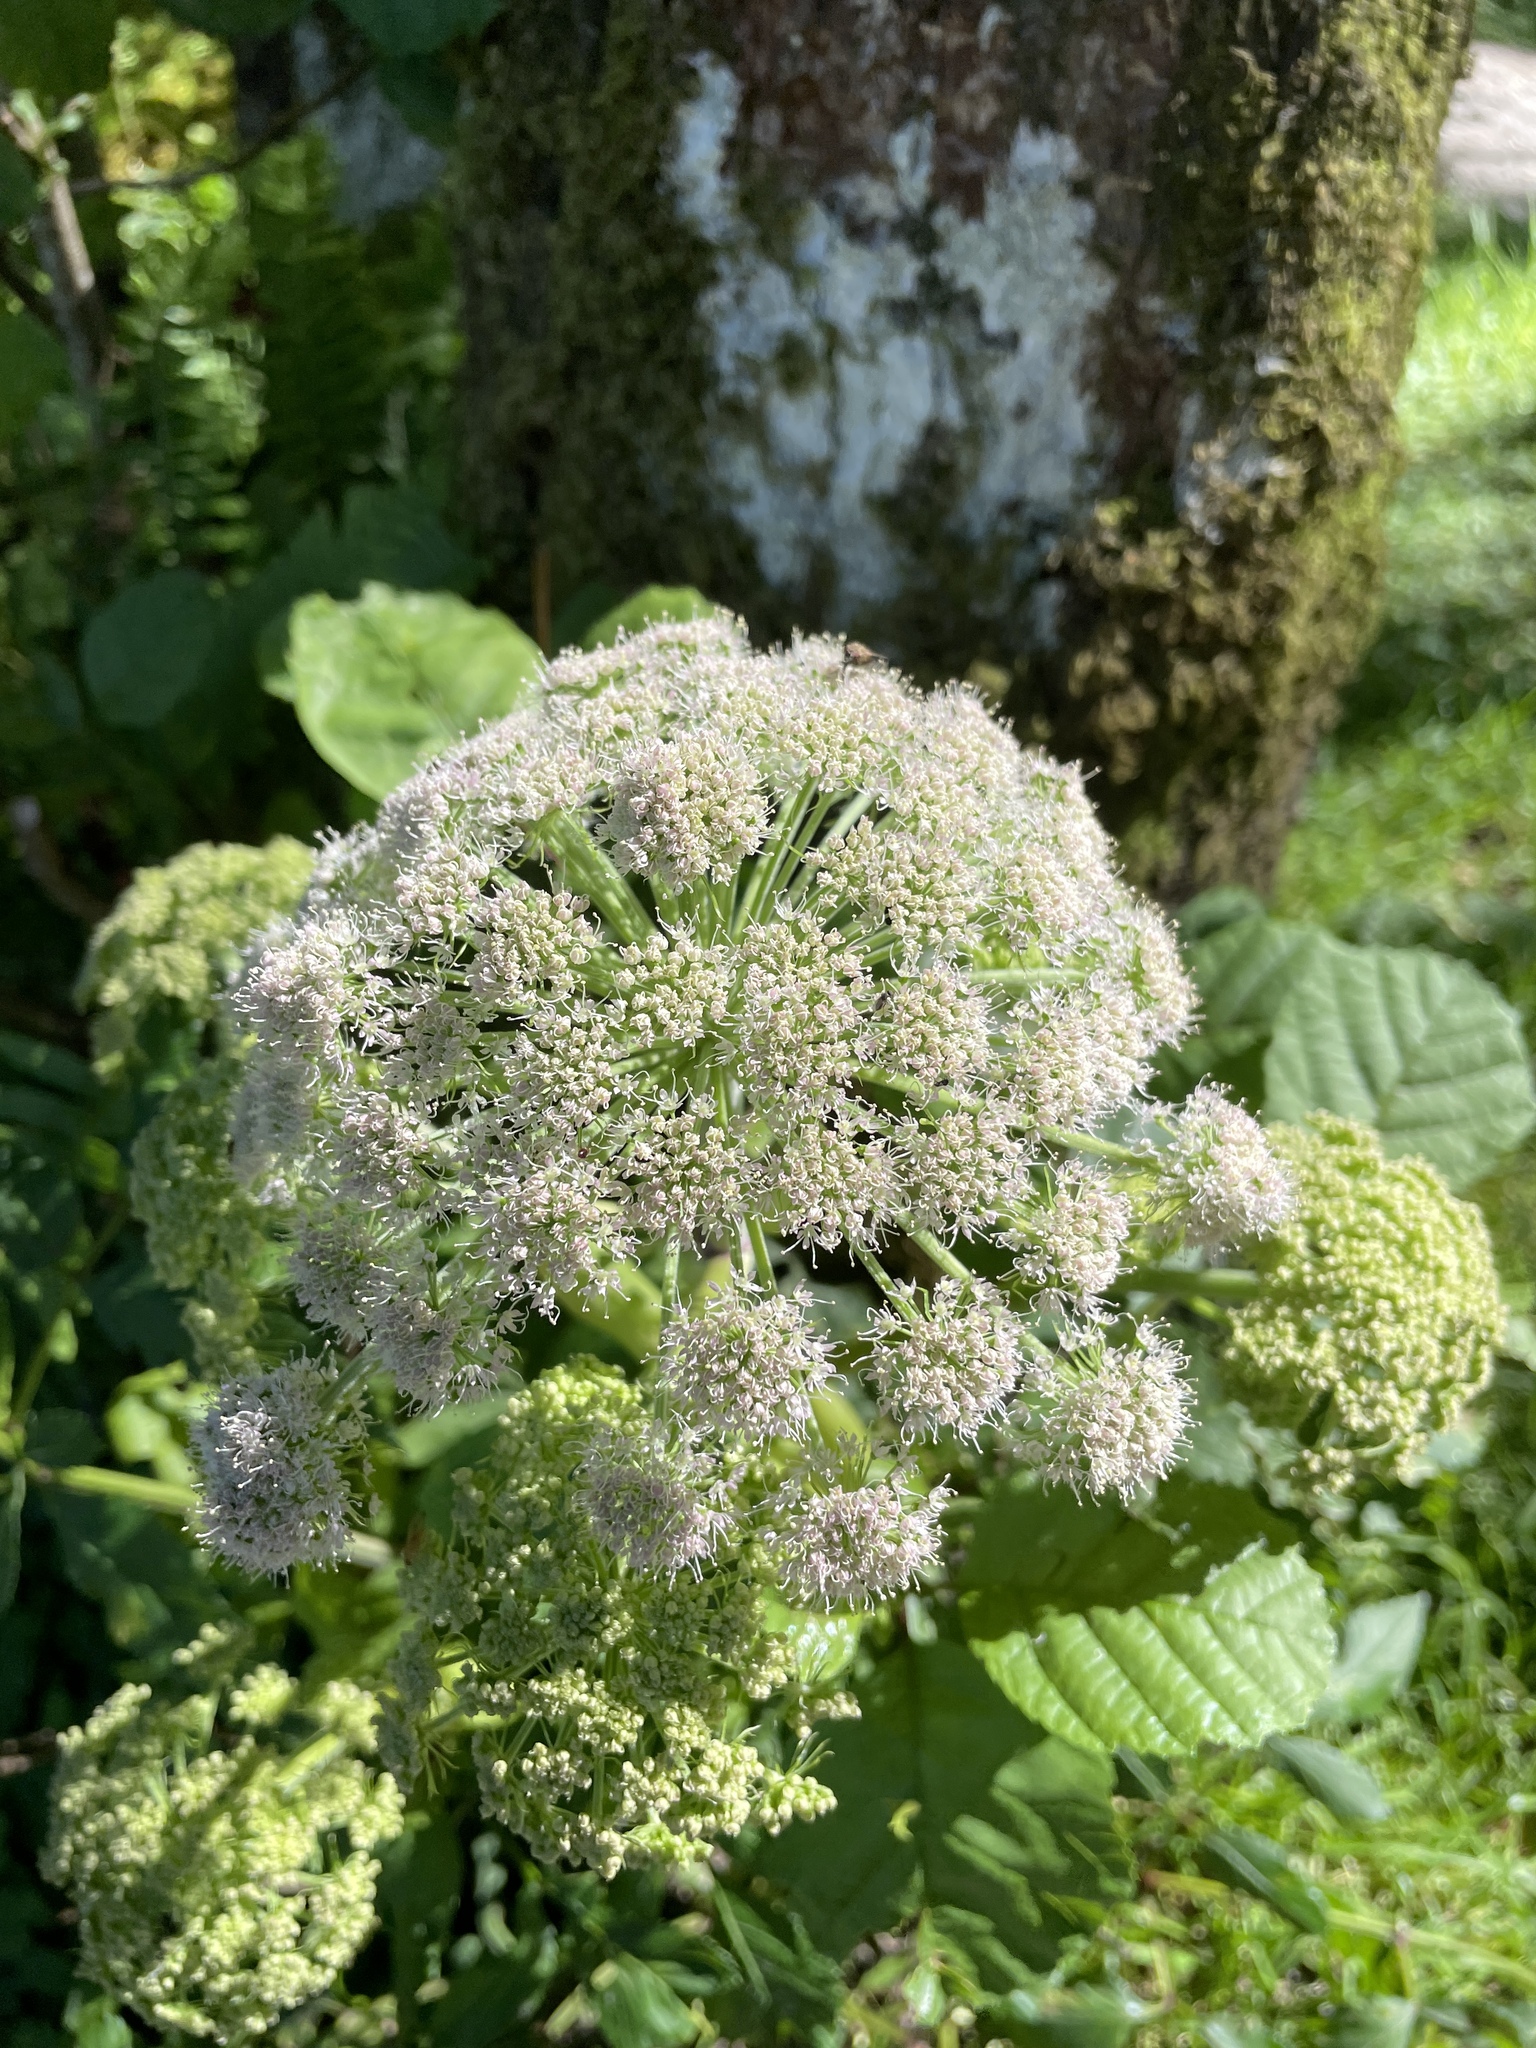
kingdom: Plantae
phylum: Tracheophyta
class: Magnoliopsida
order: Apiales
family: Apiaceae
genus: Angelica
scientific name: Angelica sylvestris
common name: Wild angelica
